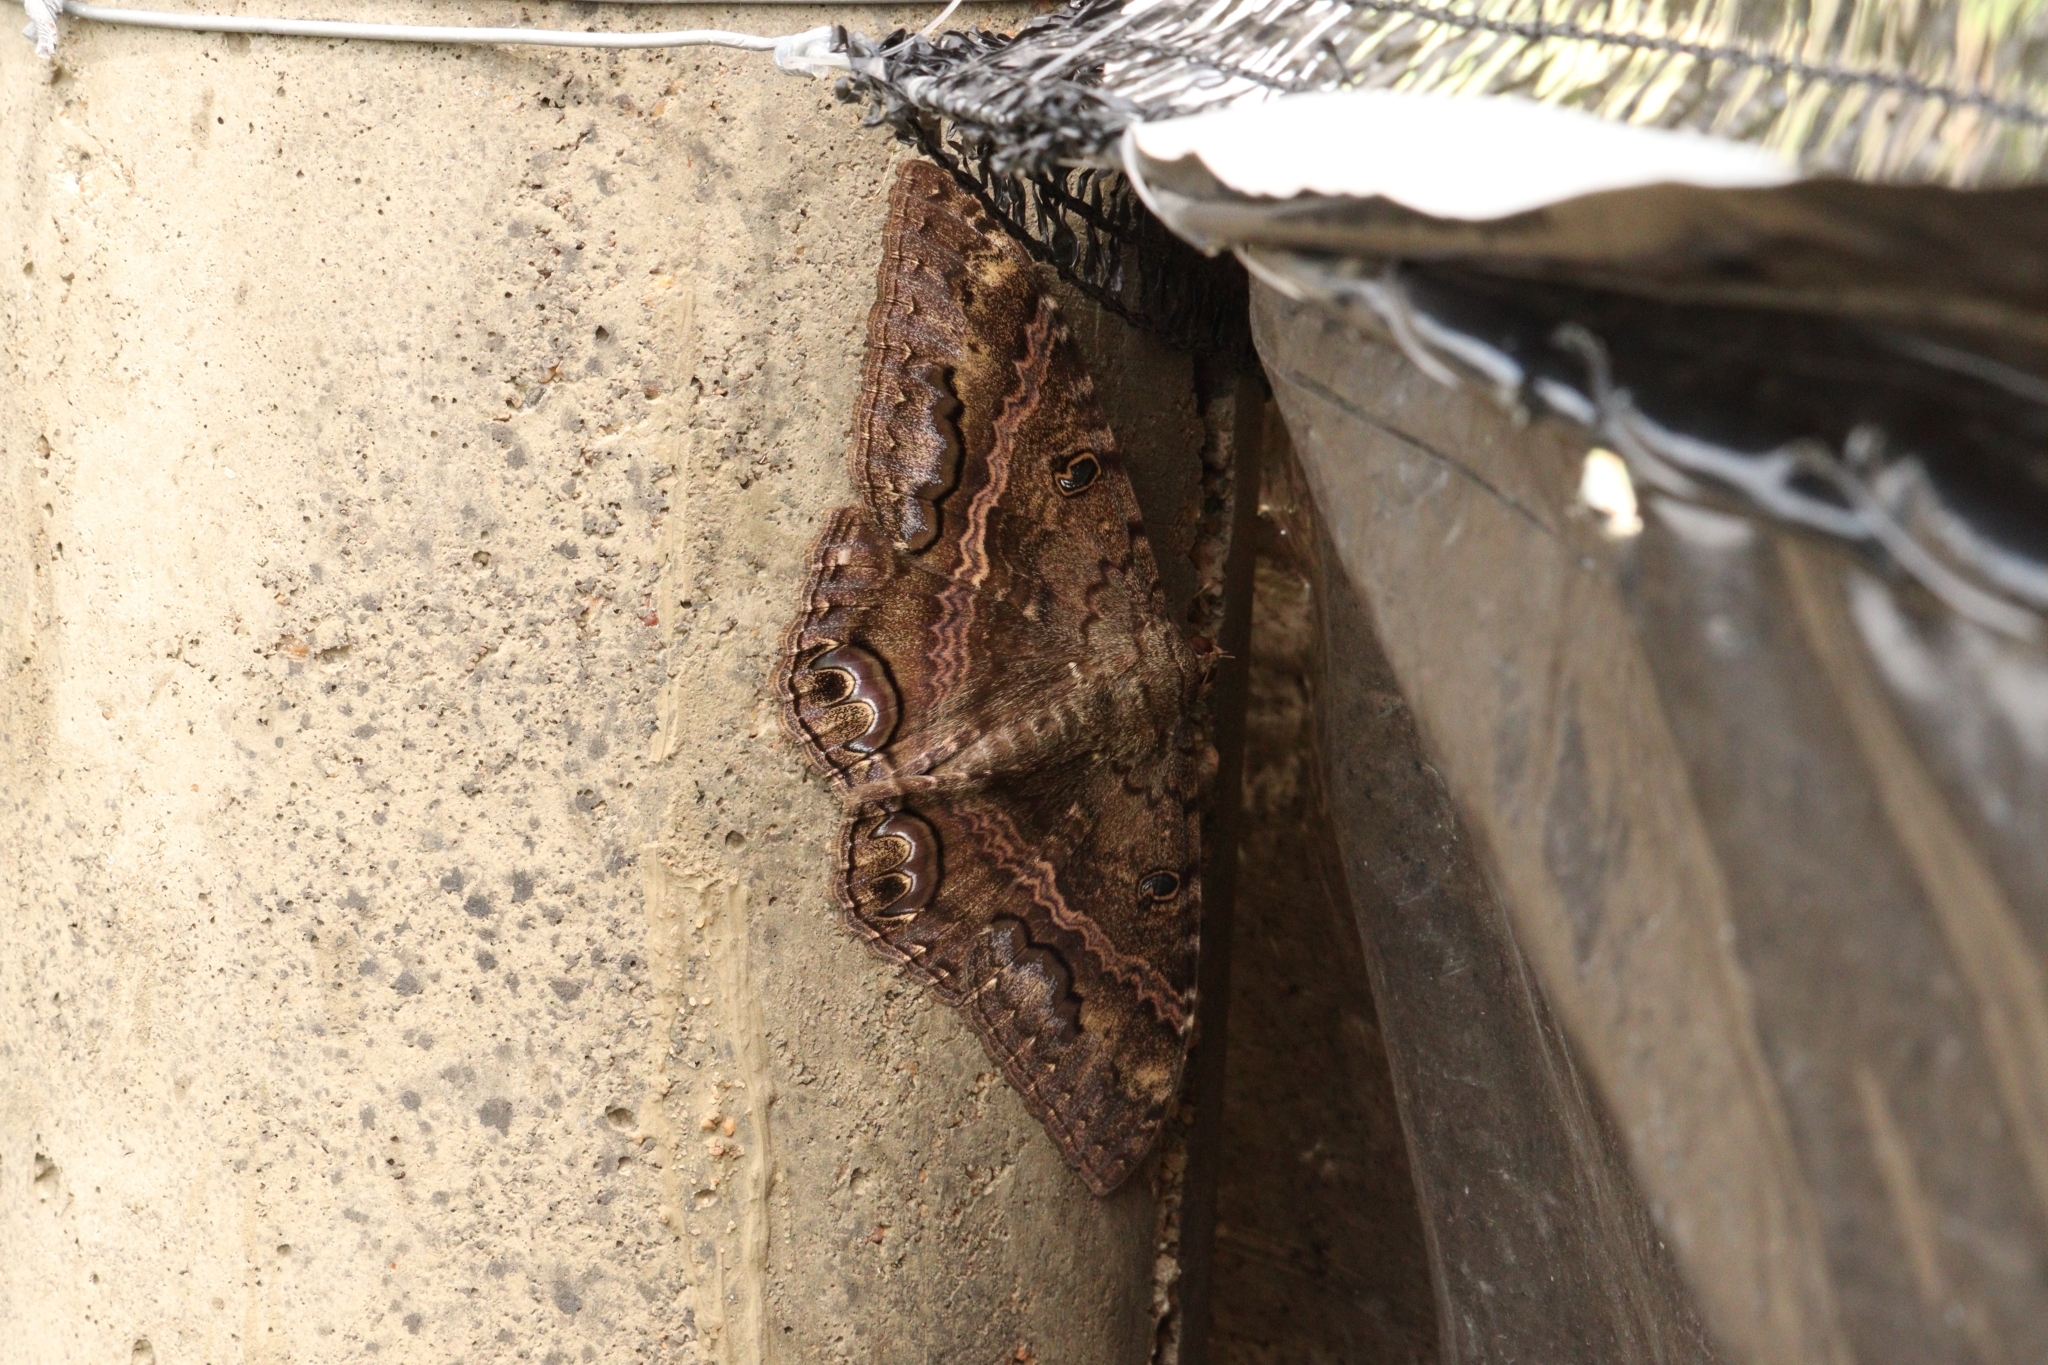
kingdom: Animalia
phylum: Arthropoda
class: Insecta
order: Lepidoptera
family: Erebidae
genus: Ascalapha
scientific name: Ascalapha odorata
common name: Black witch
